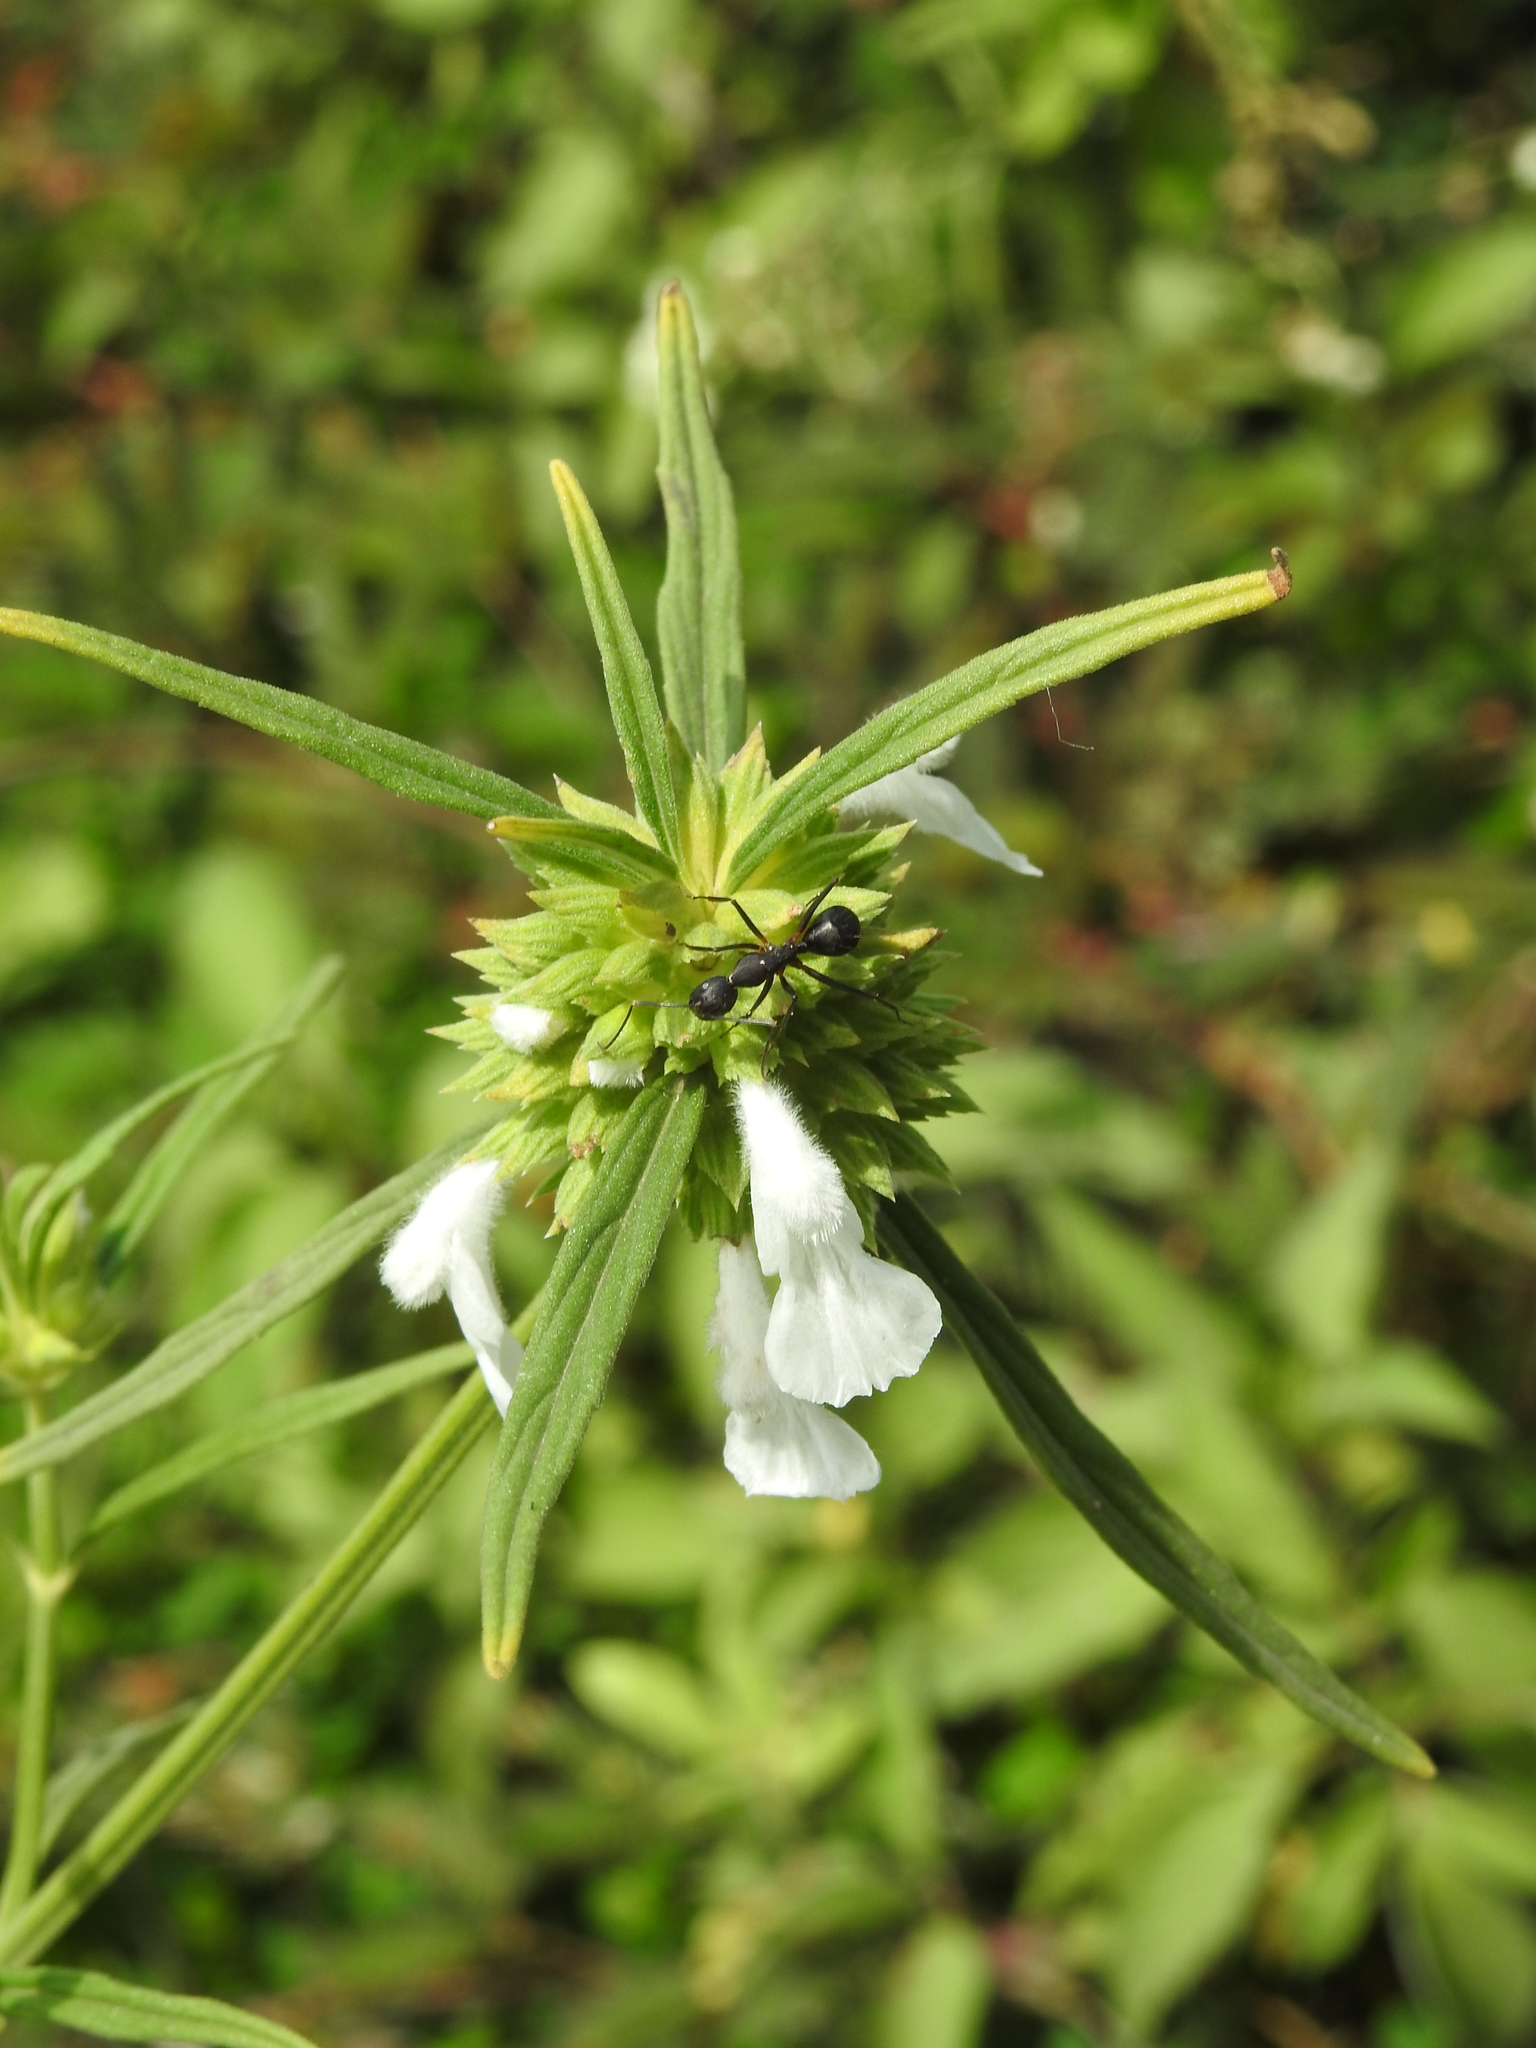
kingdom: Animalia
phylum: Arthropoda
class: Insecta
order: Hymenoptera
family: Formicidae
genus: Camponotus
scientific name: Camponotus compressus
